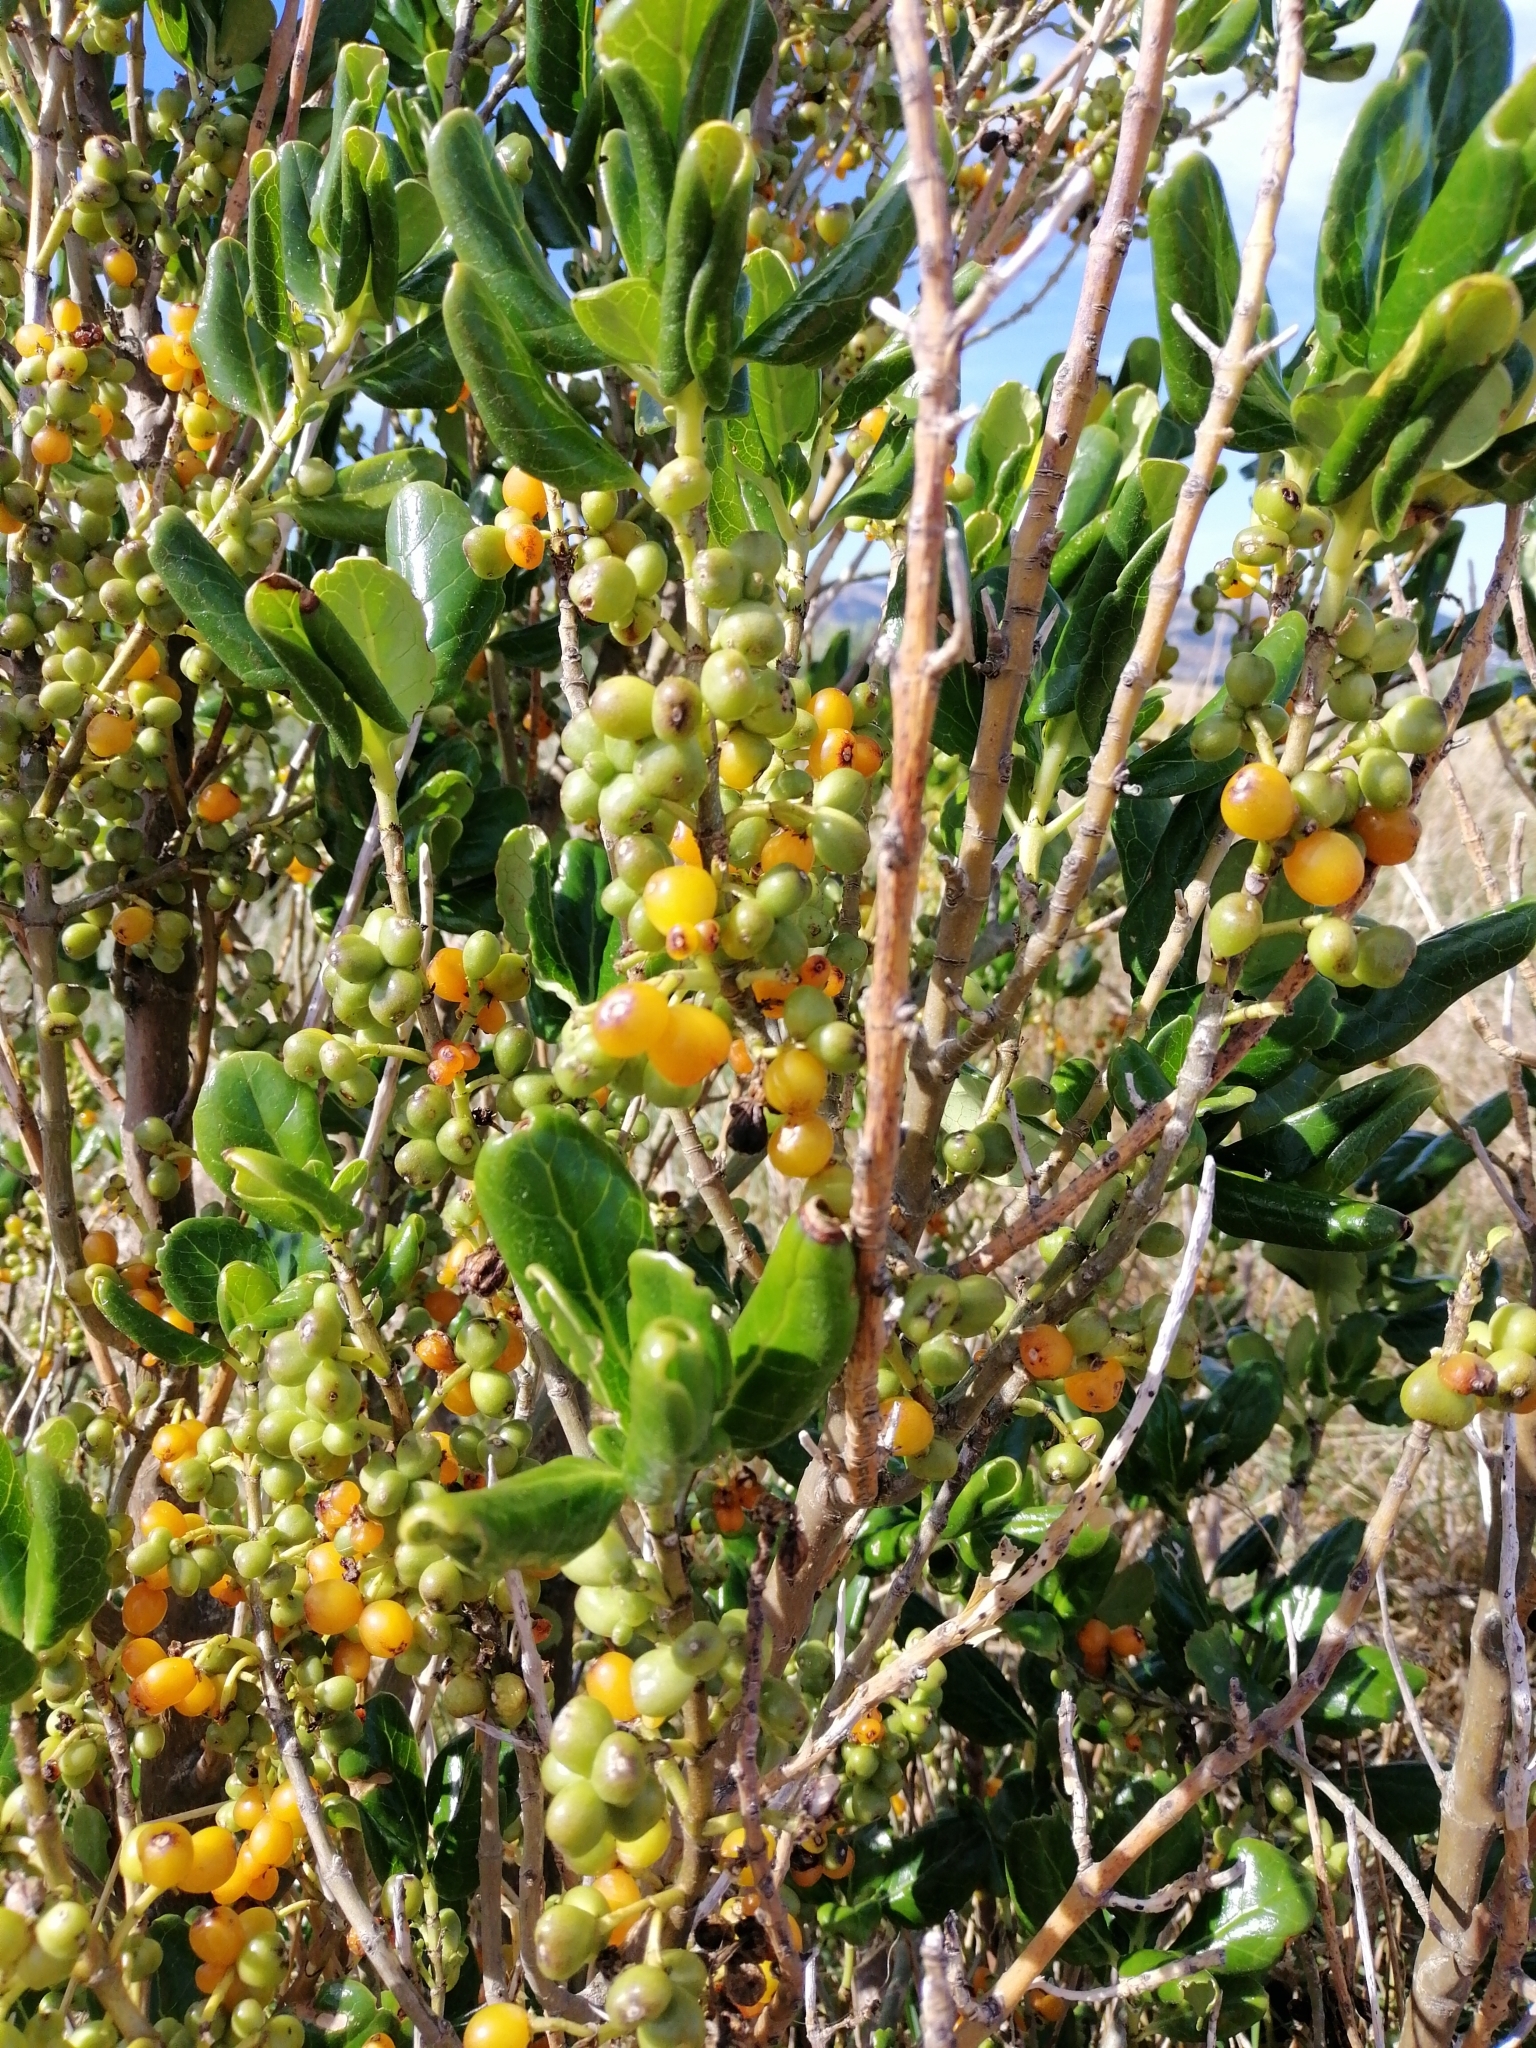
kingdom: Plantae
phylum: Tracheophyta
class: Magnoliopsida
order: Gentianales
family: Rubiaceae
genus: Coprosma
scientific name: Coprosma repens
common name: Tree bedstraw
